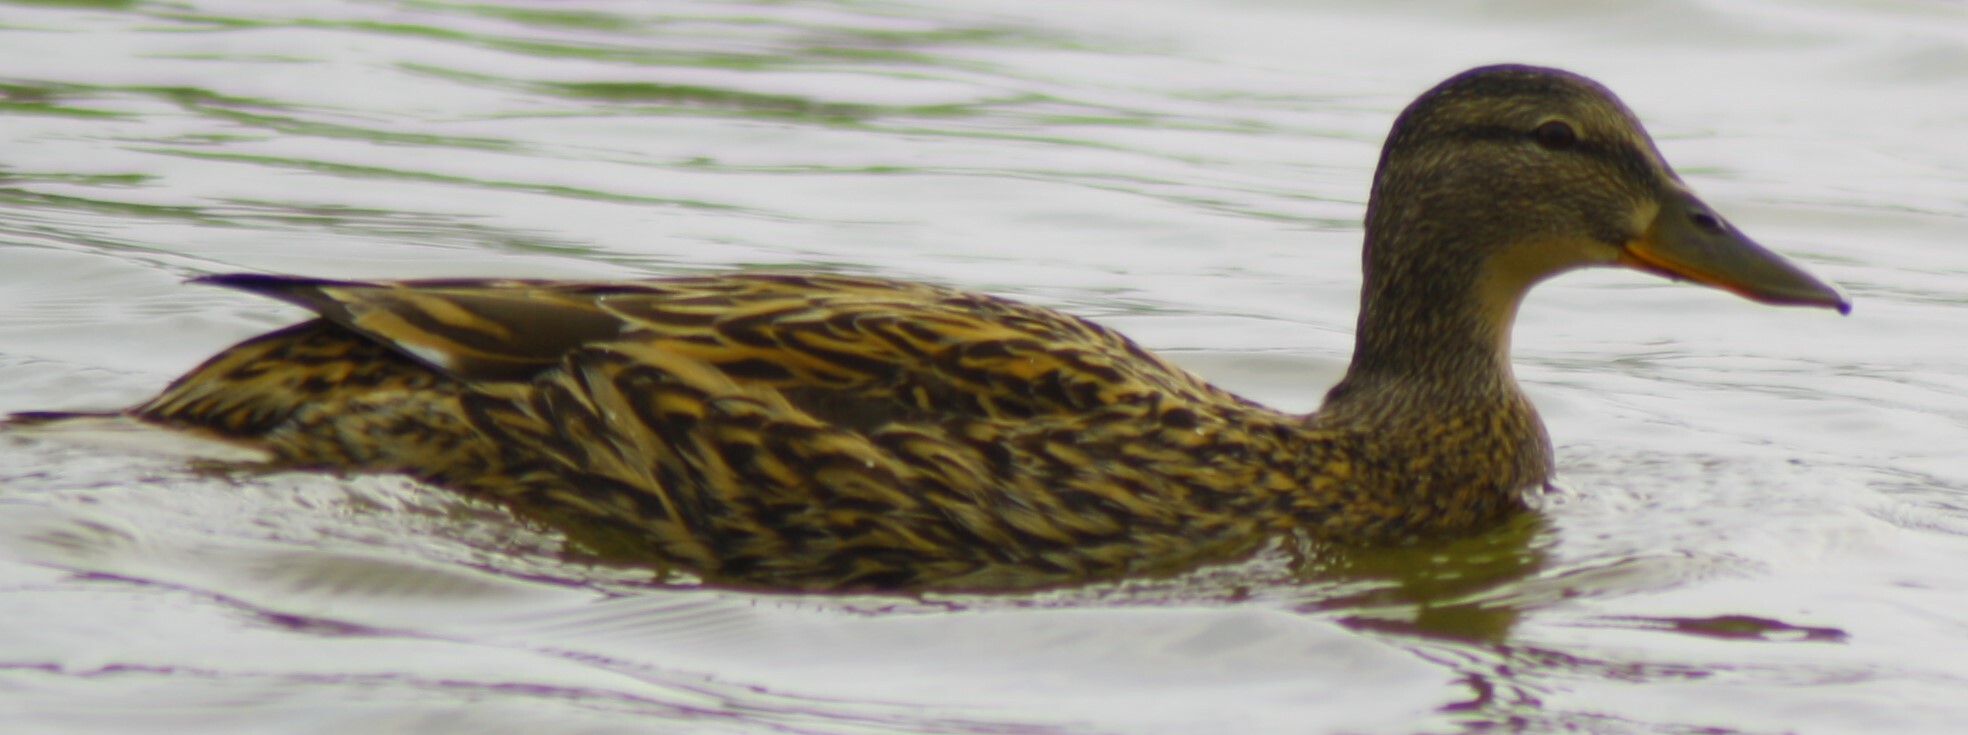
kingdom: Animalia
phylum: Chordata
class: Aves
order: Anseriformes
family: Anatidae
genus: Anas
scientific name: Anas platyrhynchos
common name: Mallard
